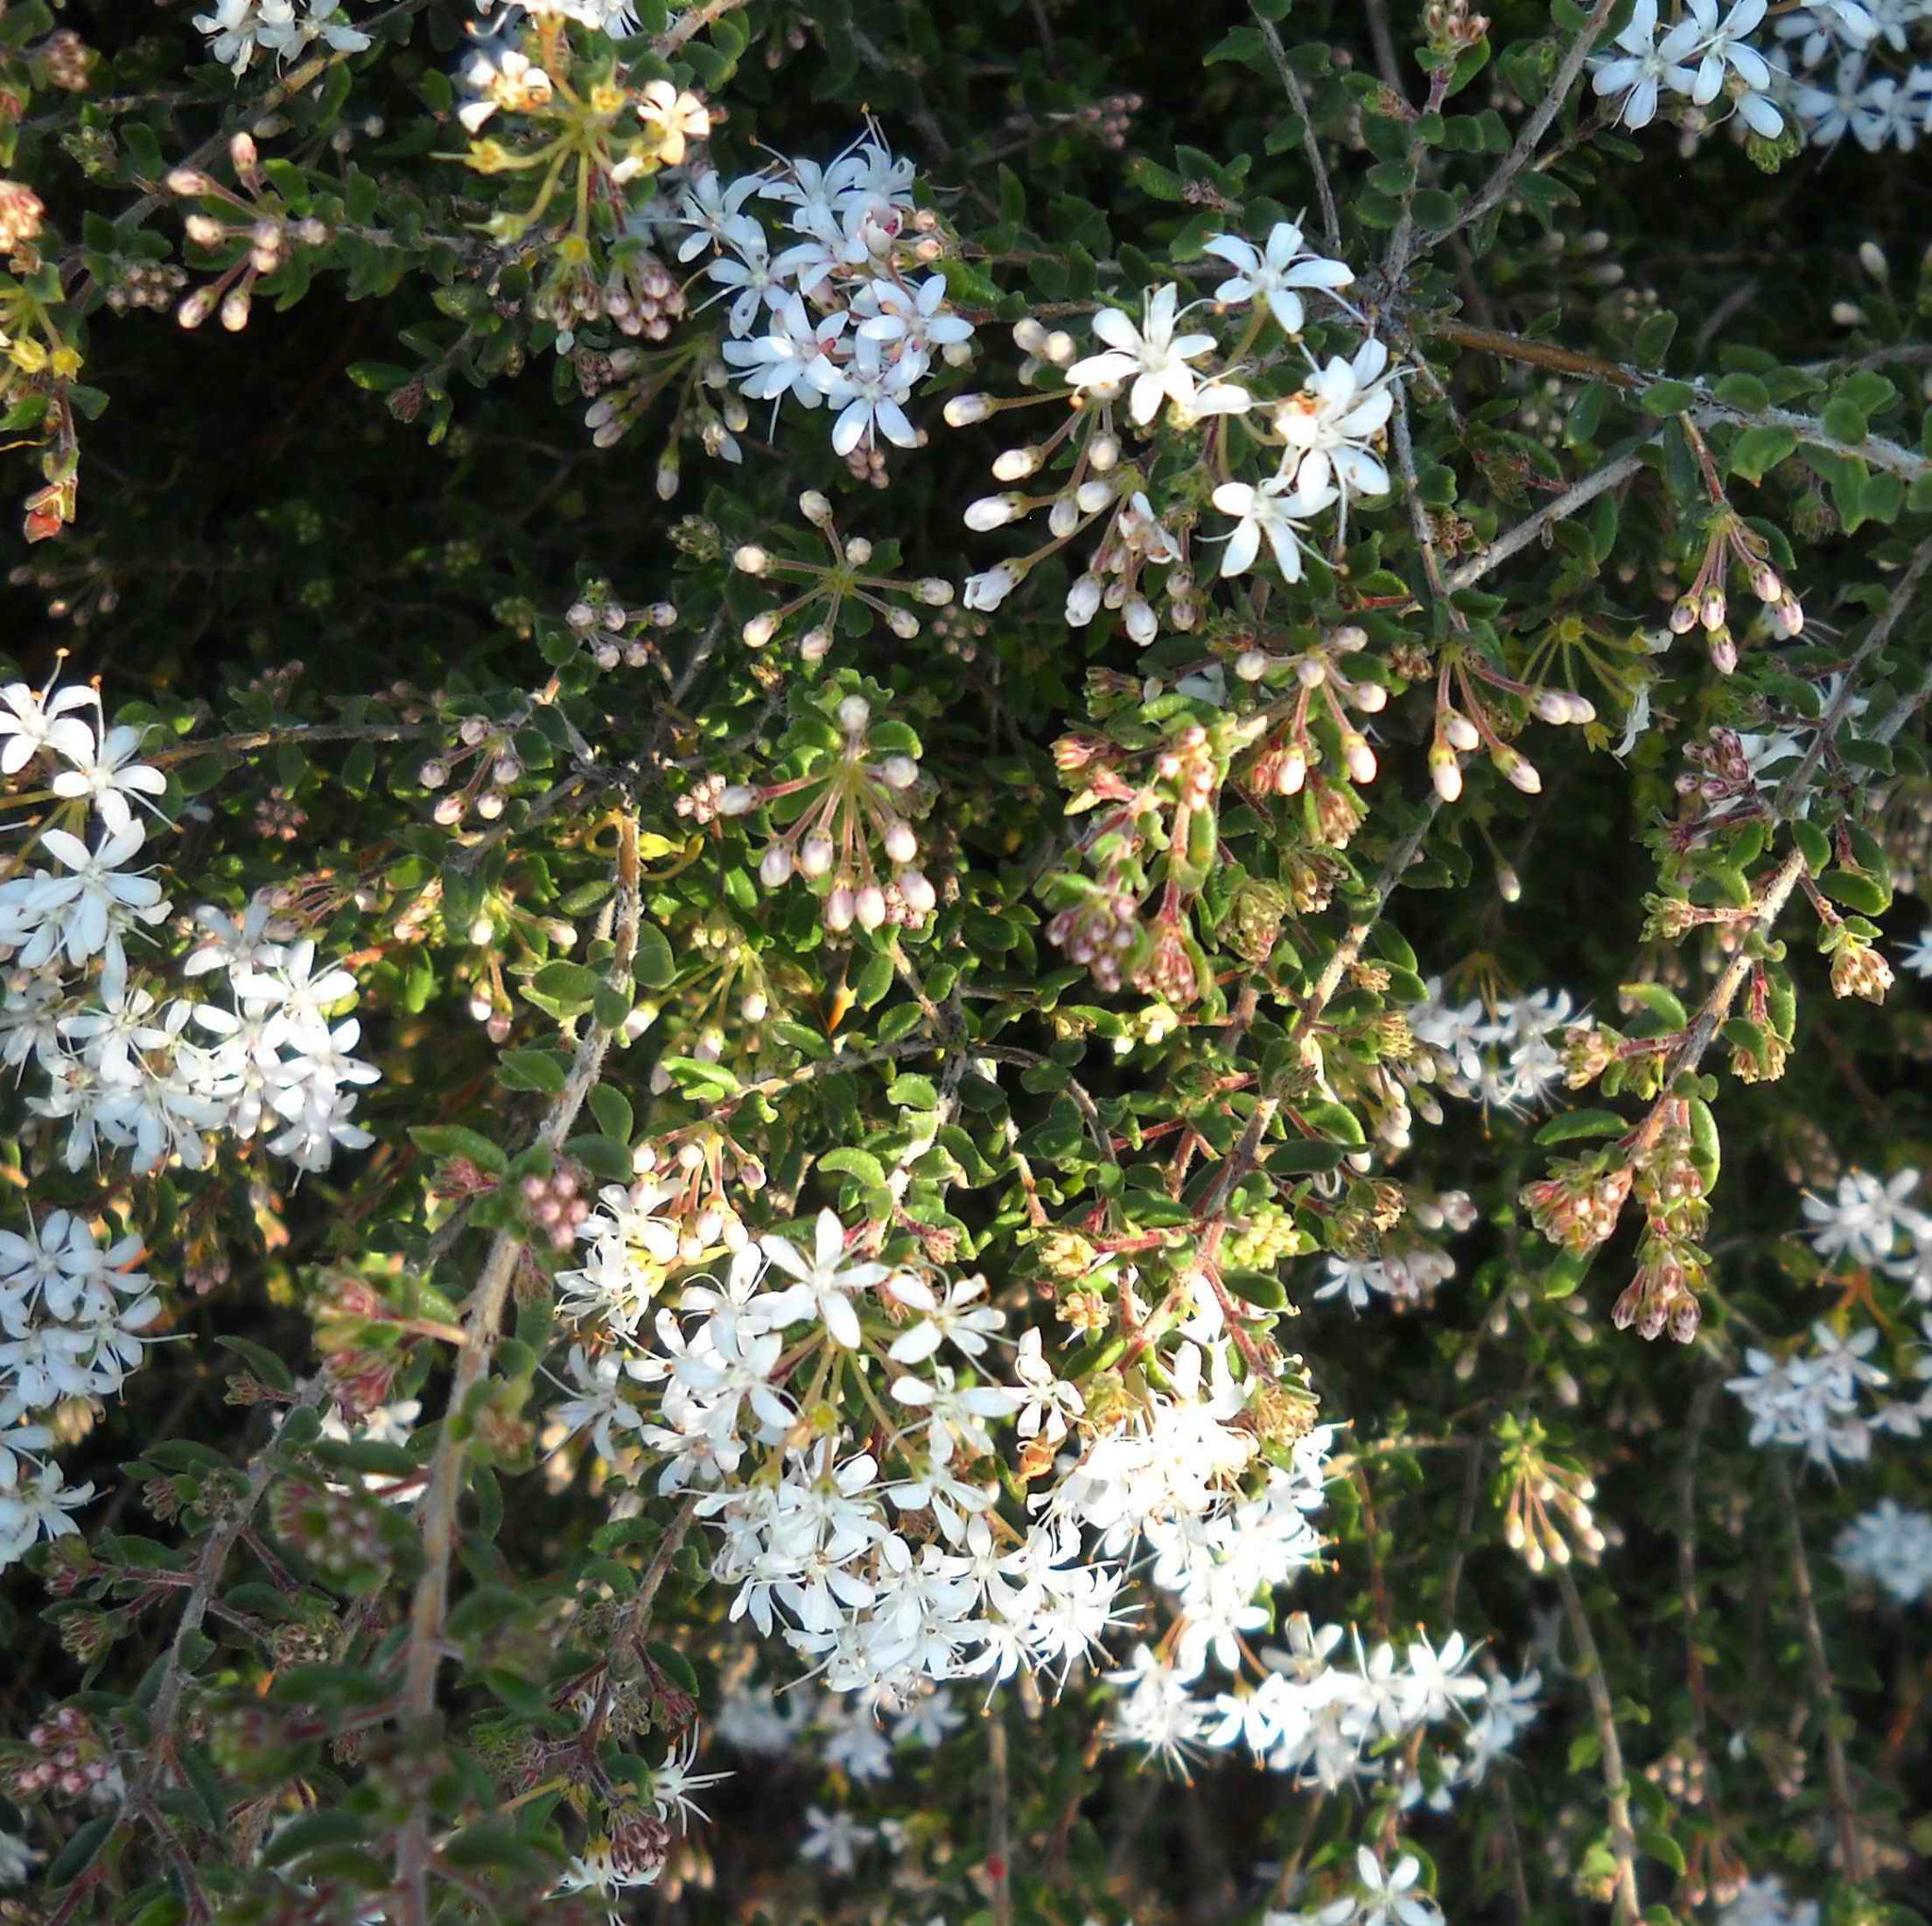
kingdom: Plantae
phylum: Tracheophyta
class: Magnoliopsida
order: Sapindales
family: Rutaceae
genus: Agathosma
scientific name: Agathosma mundtii
